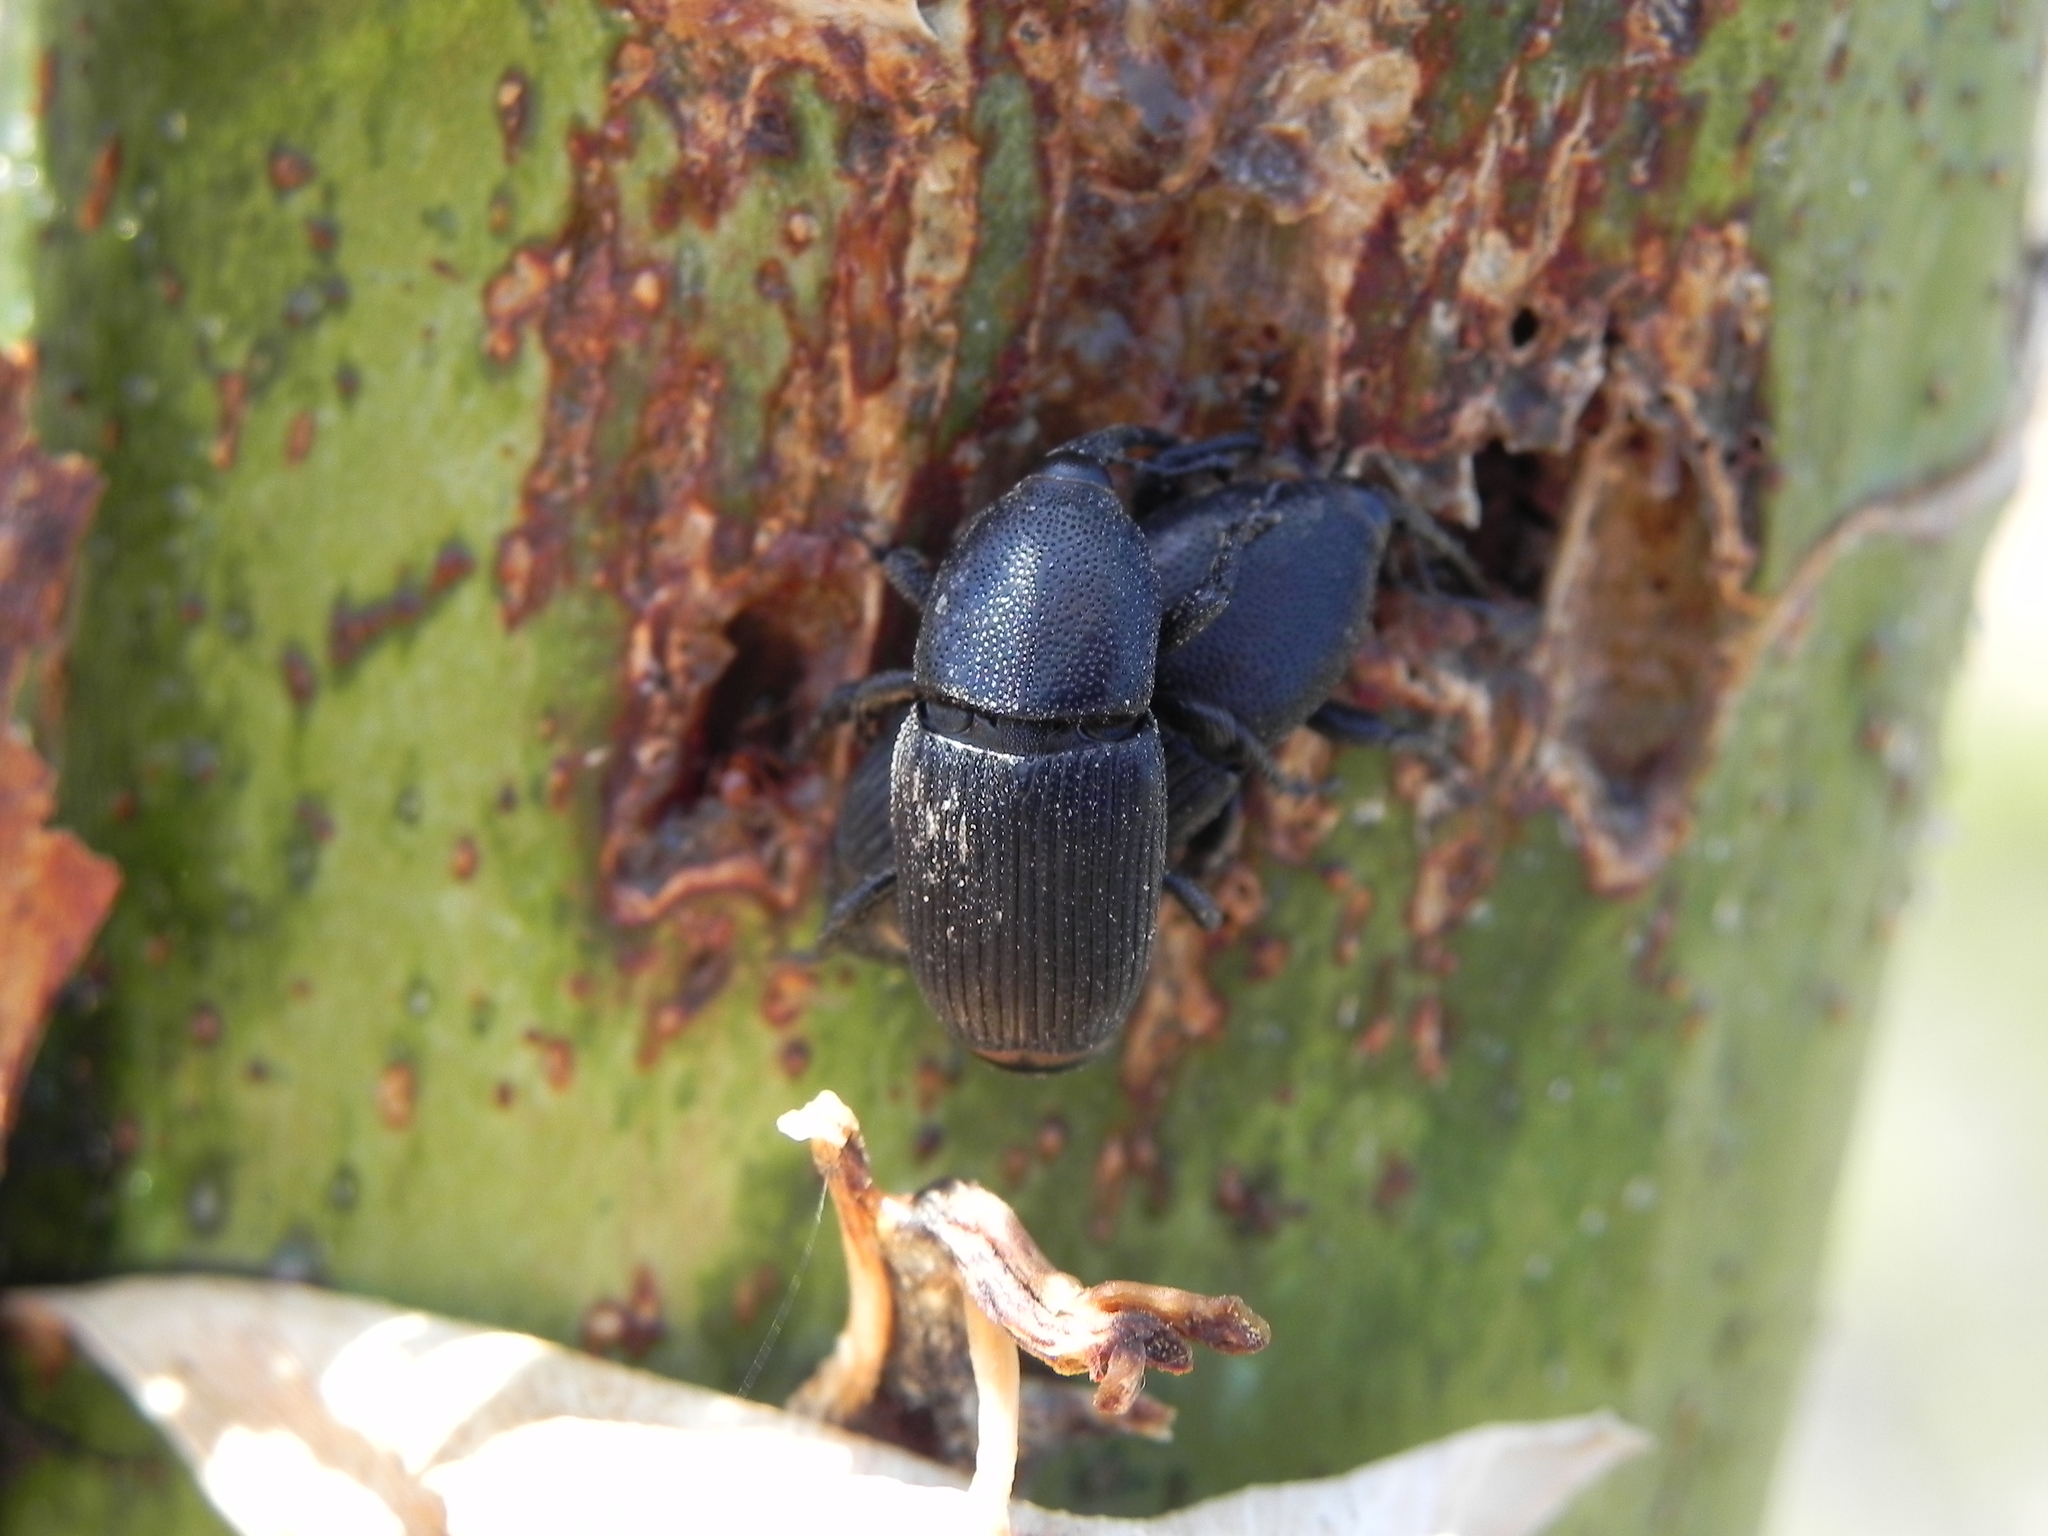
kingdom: Animalia
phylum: Arthropoda
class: Insecta
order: Coleoptera
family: Dryophthoridae
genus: Scyphophorus
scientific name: Scyphophorus yuccae
